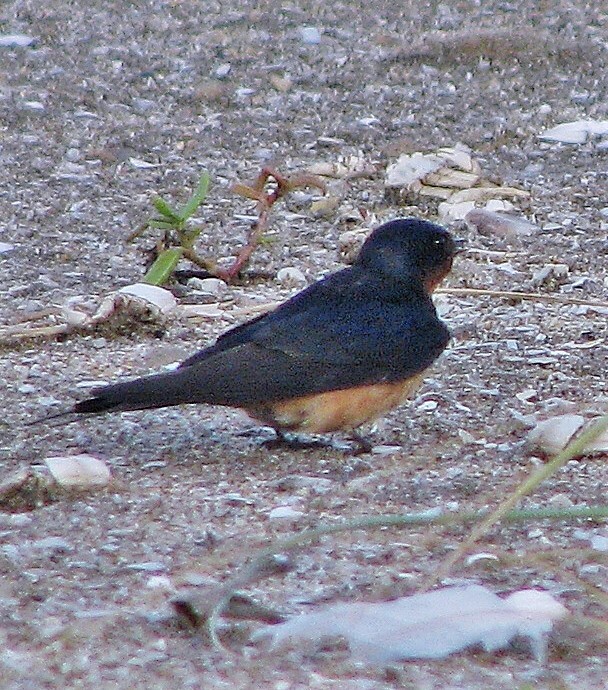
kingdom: Animalia
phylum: Chordata
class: Aves
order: Passeriformes
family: Hirundinidae
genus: Hirundo
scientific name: Hirundo rustica
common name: Barn swallow
